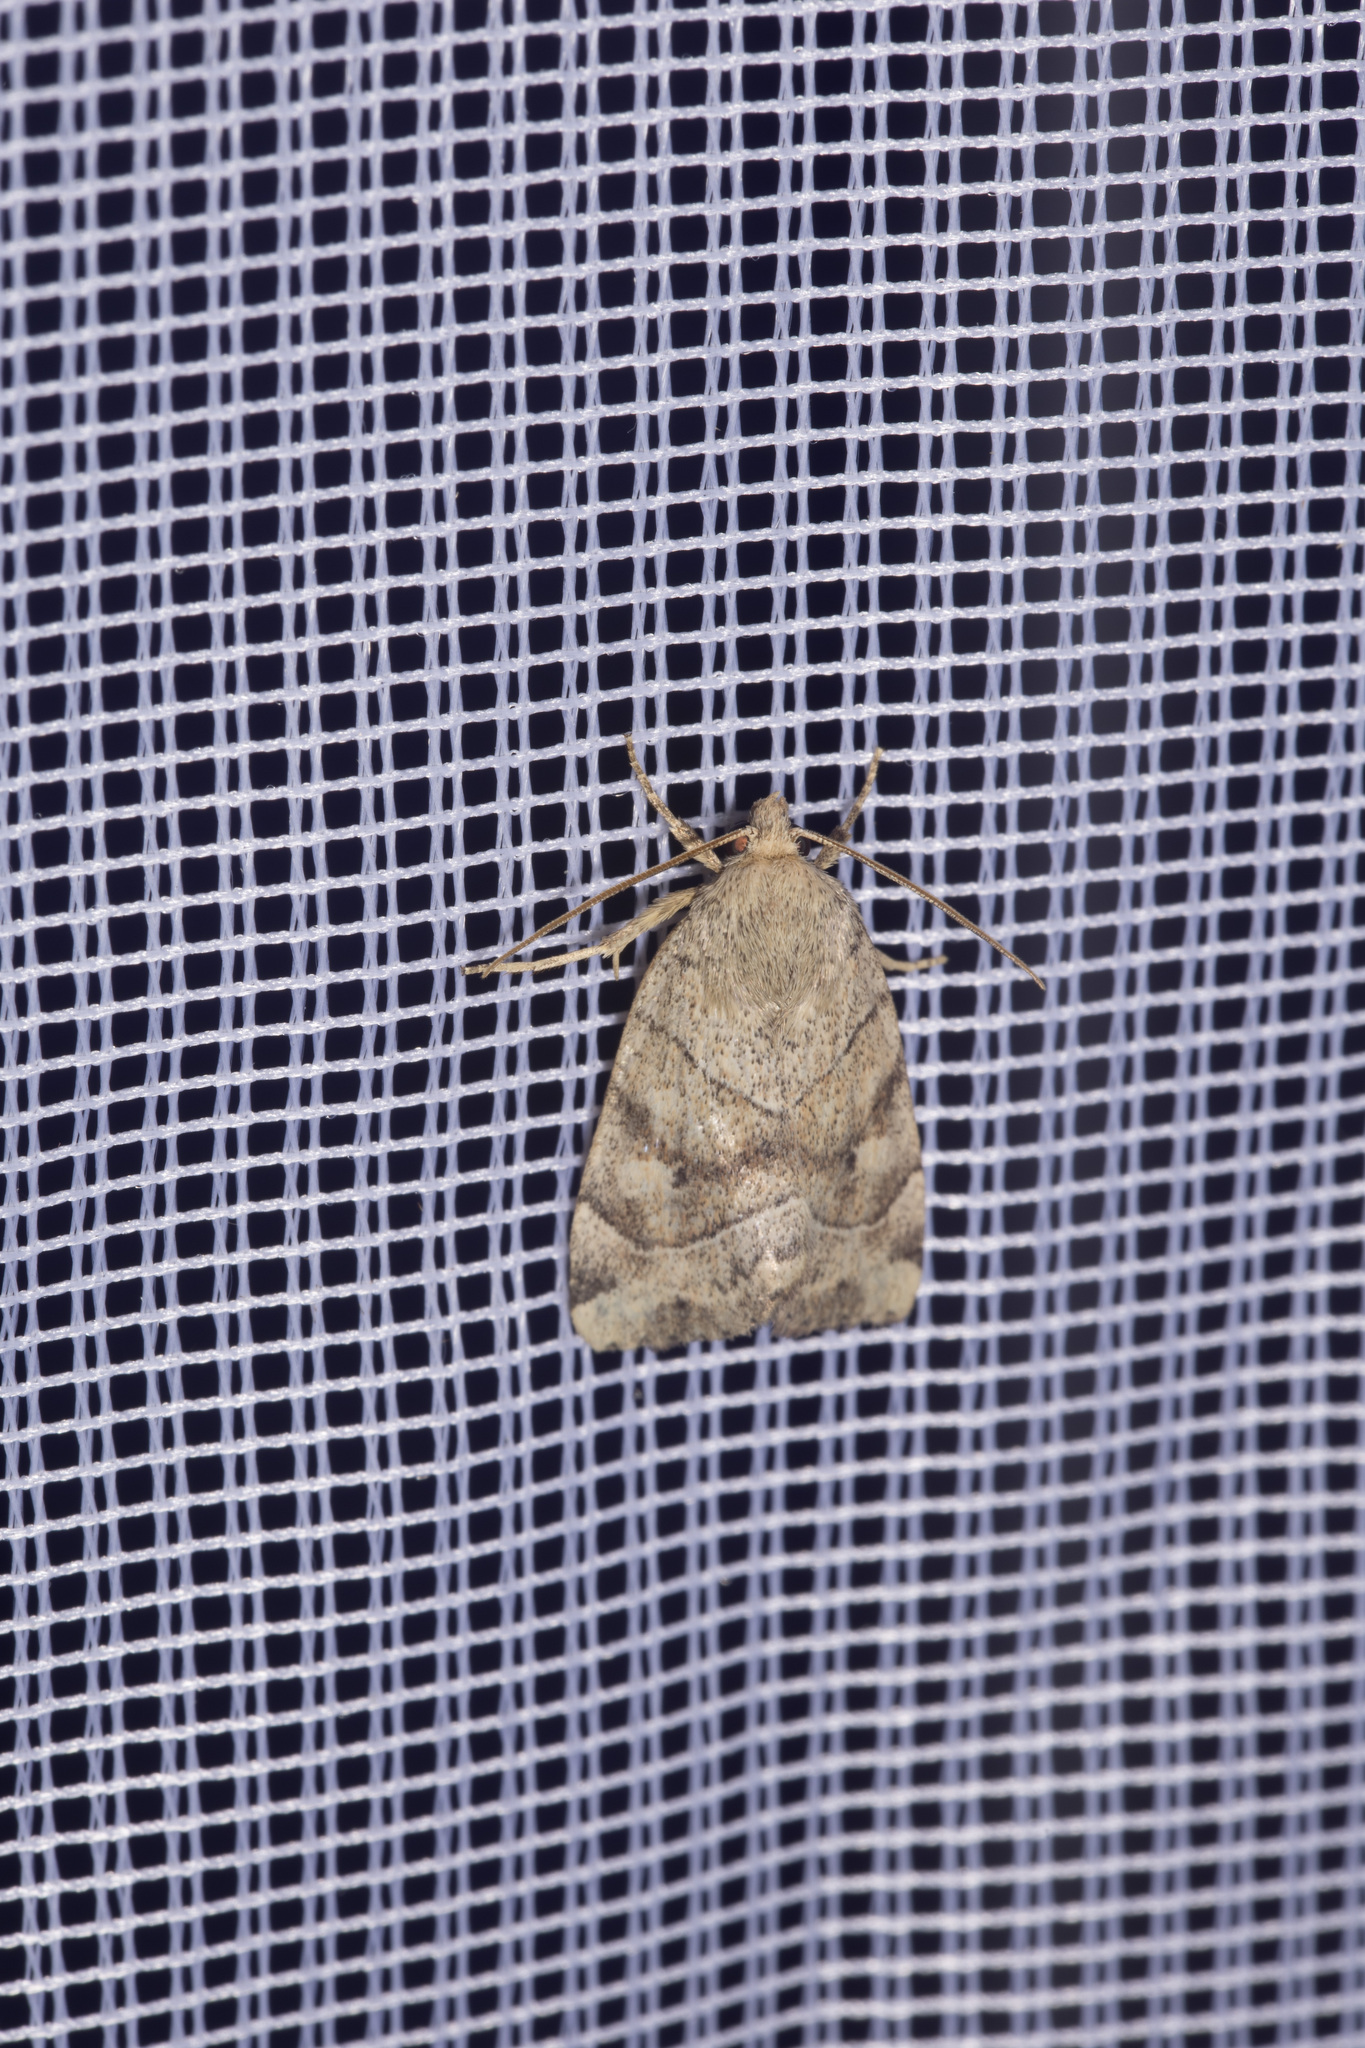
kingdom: Animalia
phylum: Arthropoda
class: Insecta
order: Lepidoptera
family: Noctuidae
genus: Cosmia
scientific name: Cosmia trapezina
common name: Dun-bar
